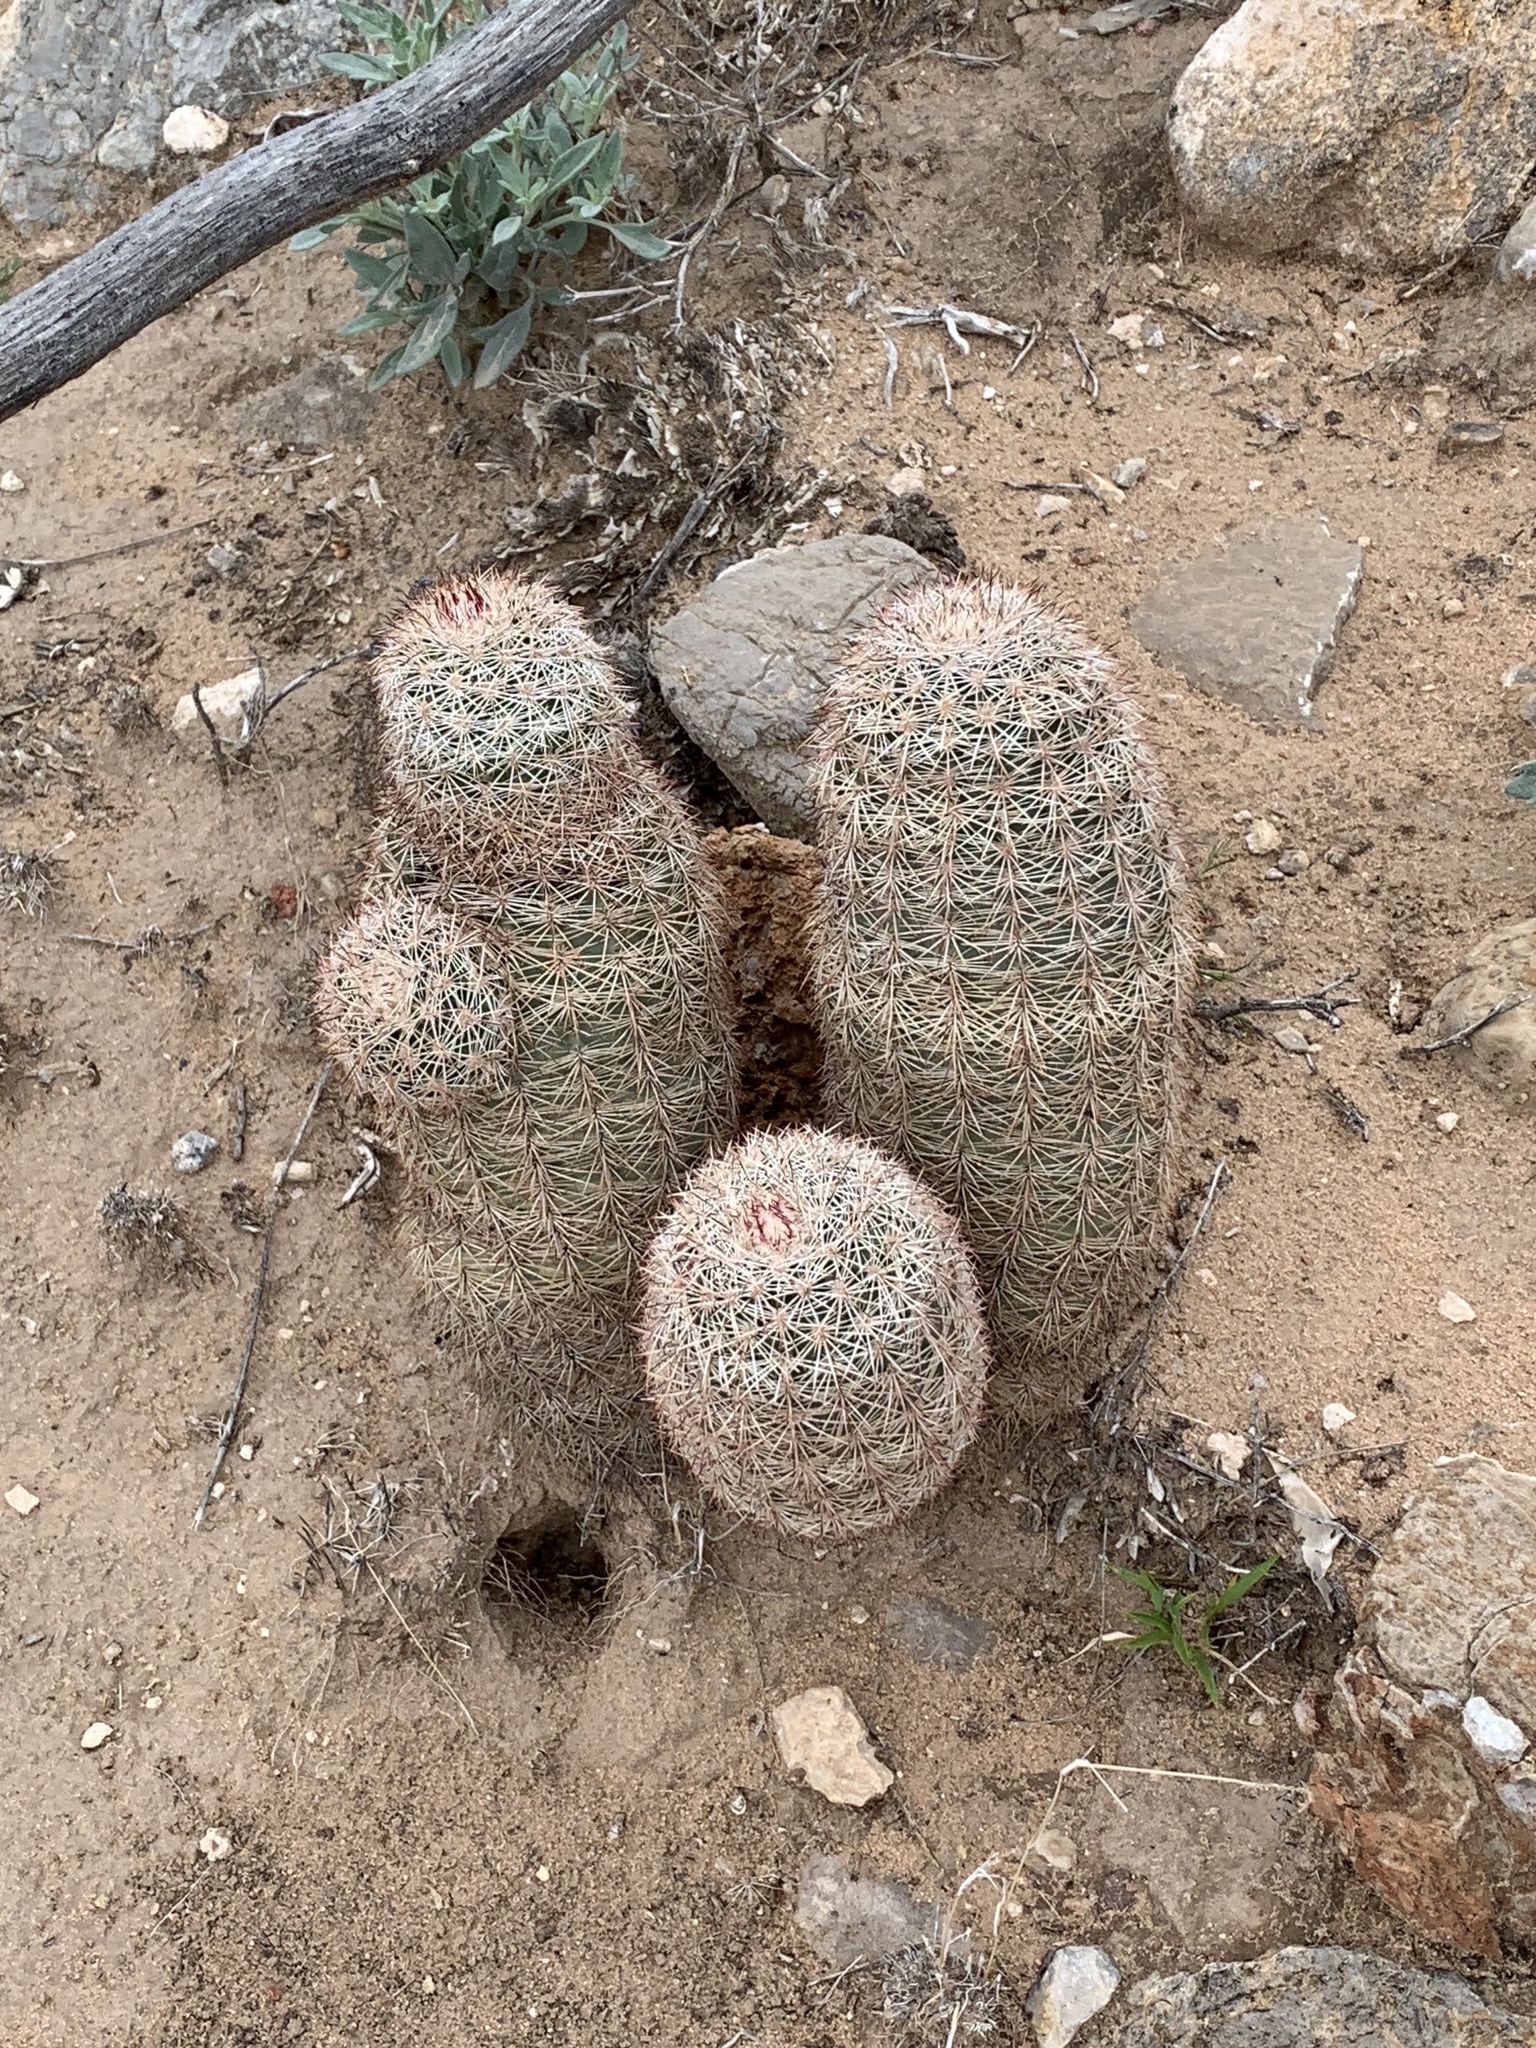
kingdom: Plantae
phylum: Tracheophyta
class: Magnoliopsida
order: Caryophyllales
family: Cactaceae
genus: Echinocereus
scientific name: Echinocereus dasyacanthus
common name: Spiny hedgehog cactus
